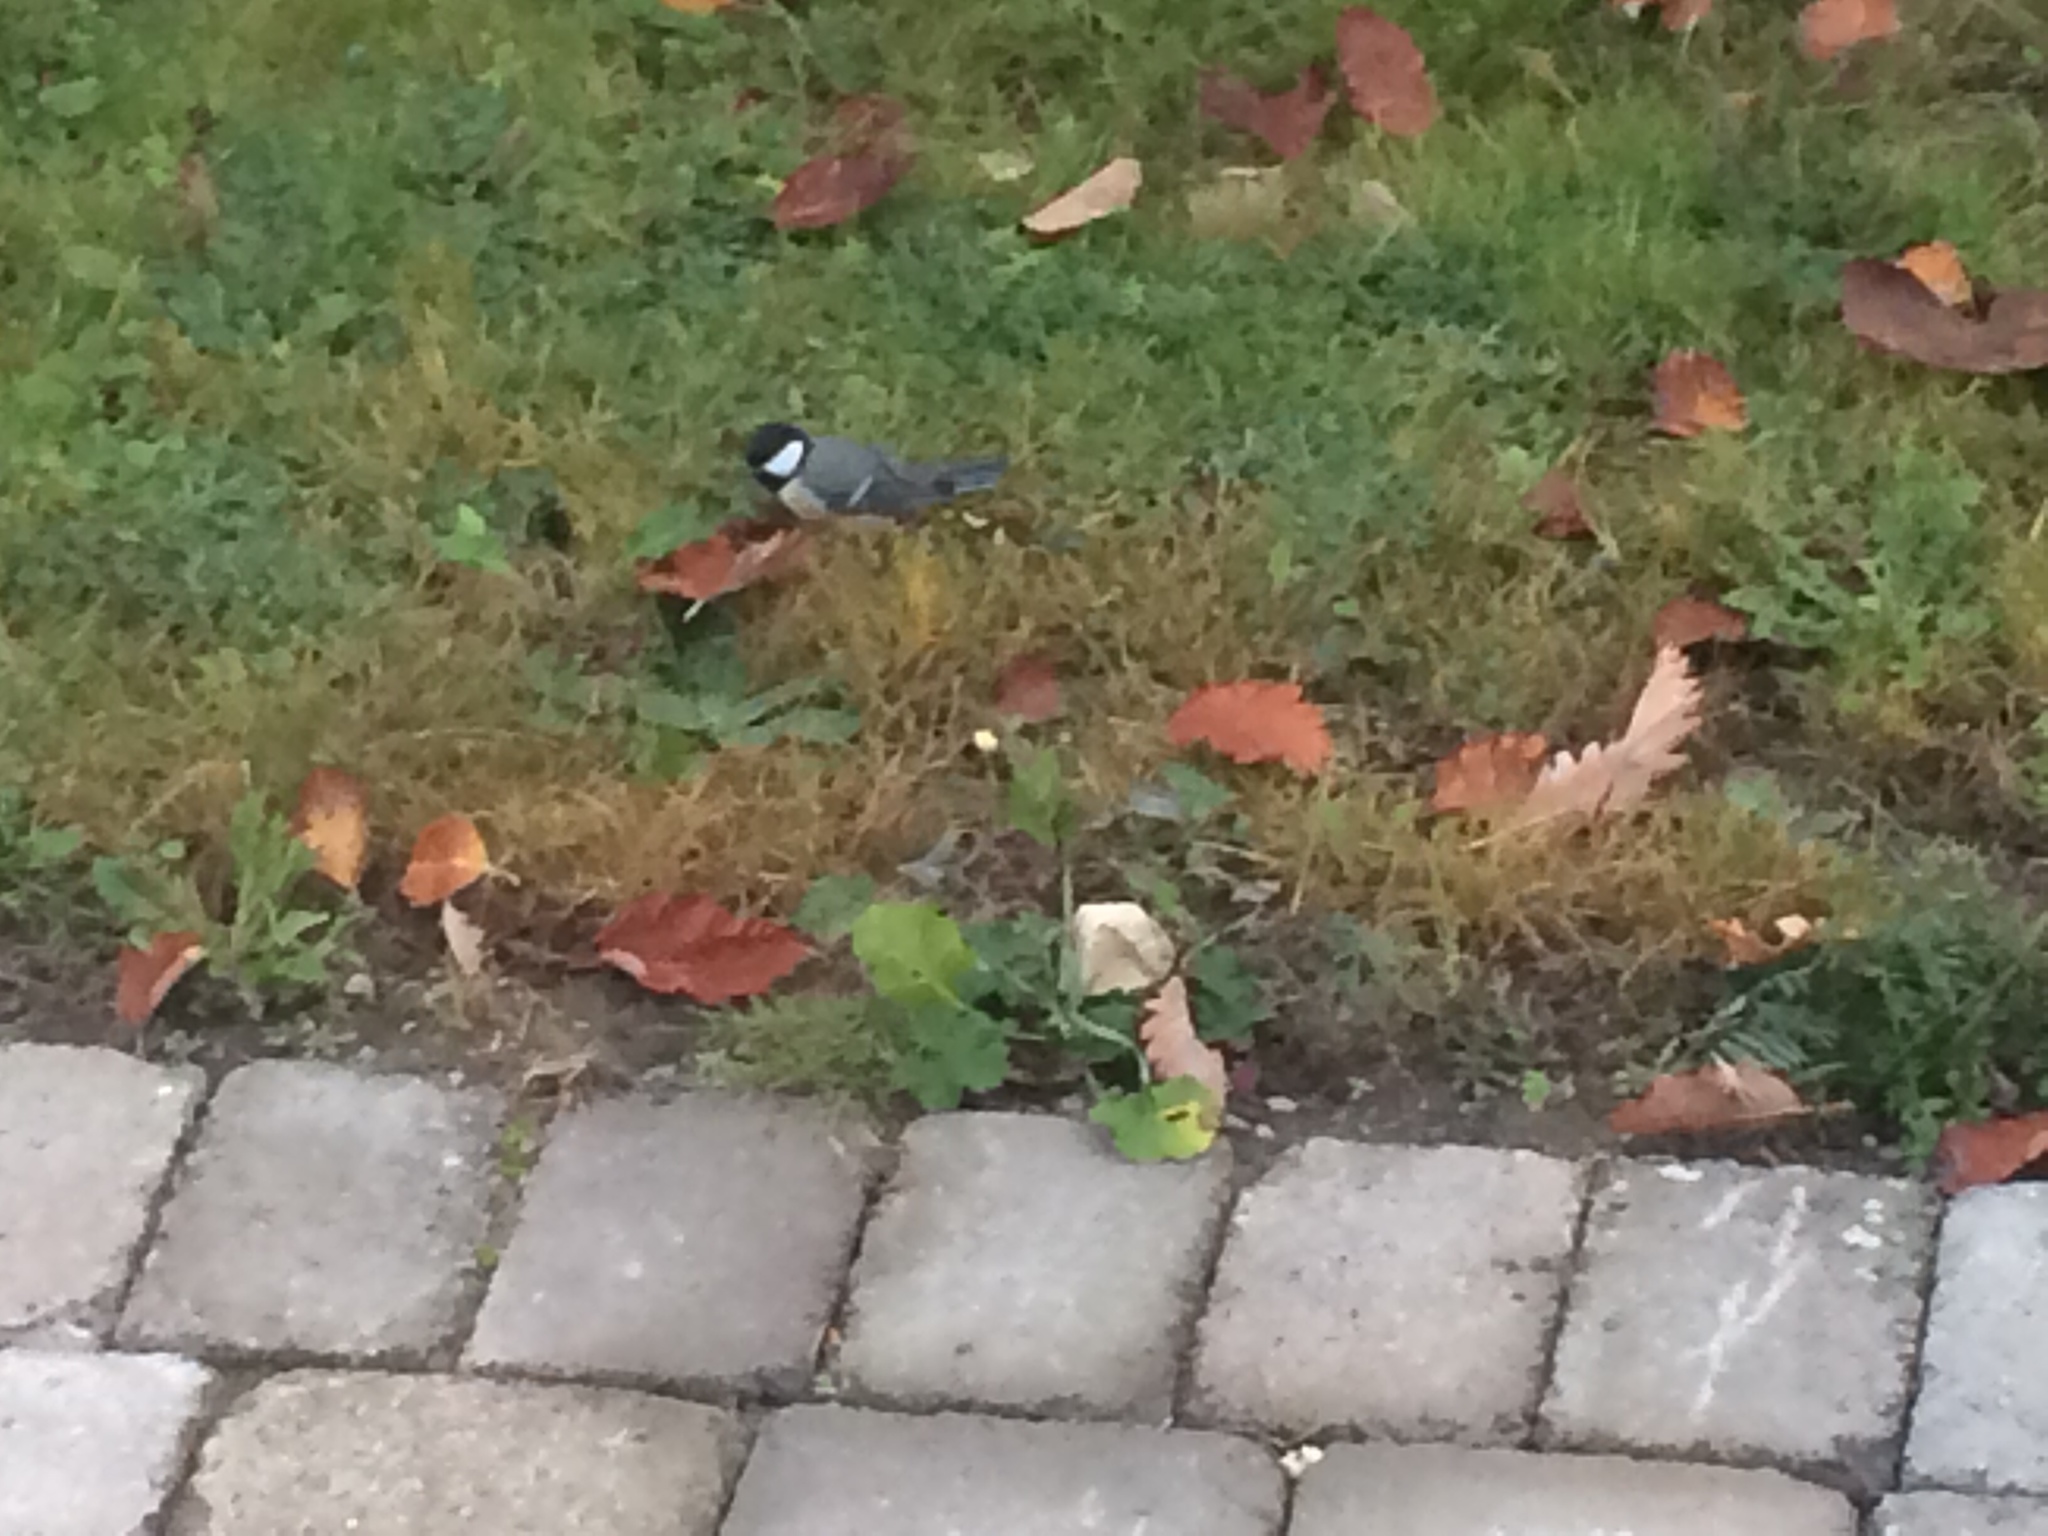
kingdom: Animalia
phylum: Chordata
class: Aves
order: Passeriformes
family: Paridae
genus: Parus
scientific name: Parus major
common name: Great tit
